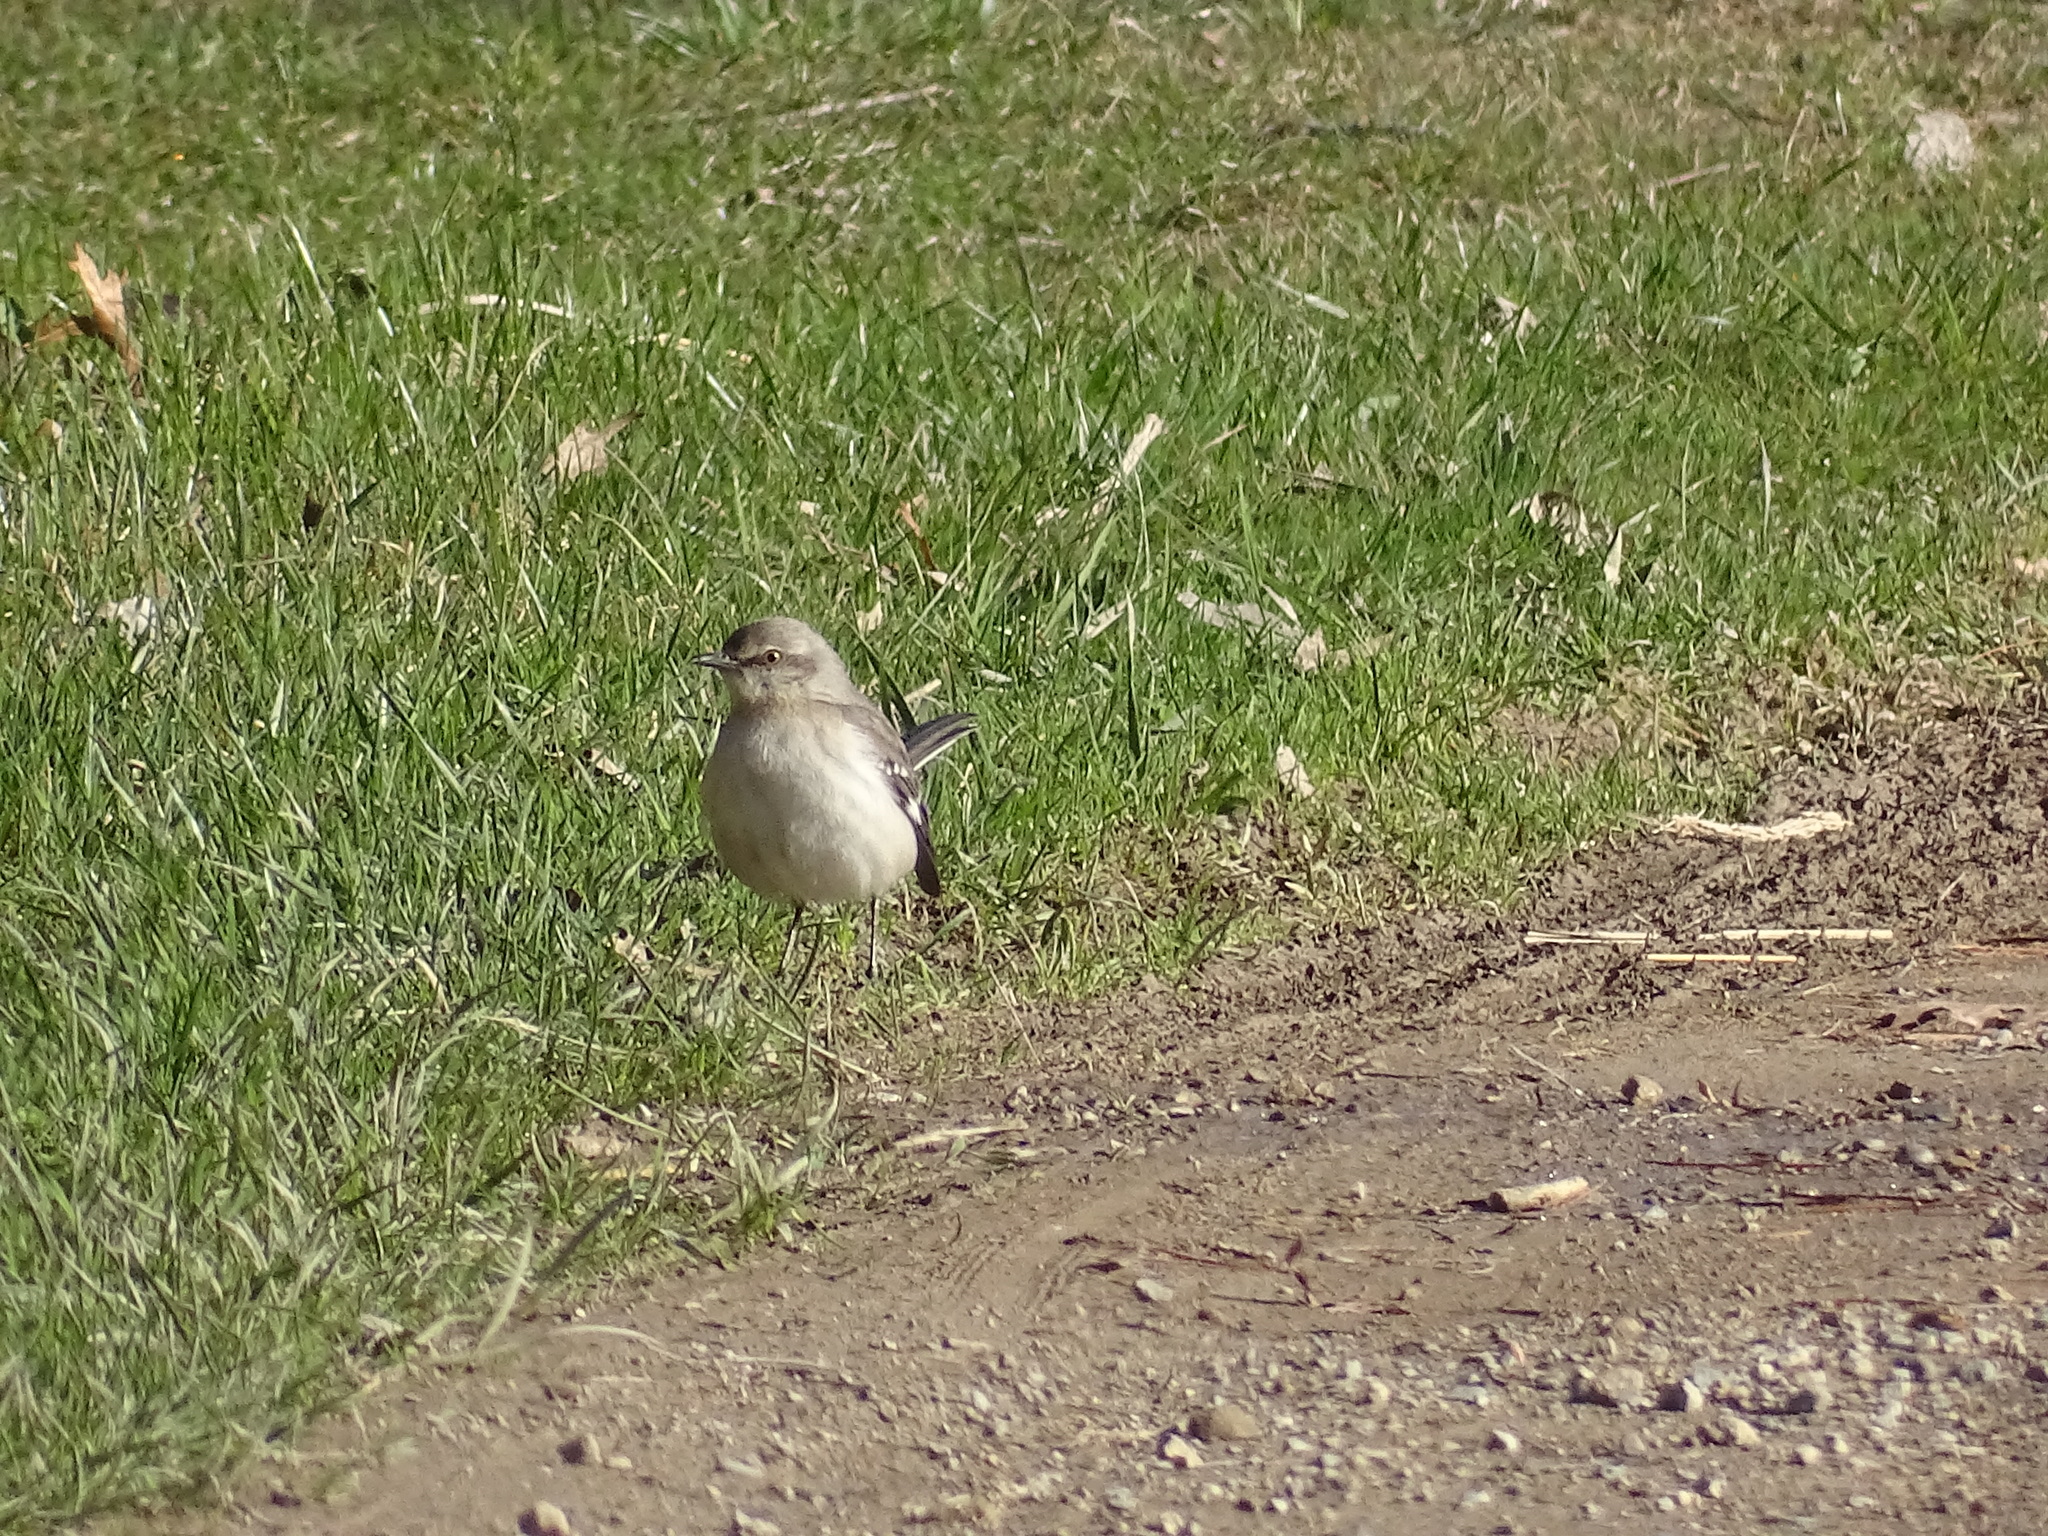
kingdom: Animalia
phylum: Chordata
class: Aves
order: Passeriformes
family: Mimidae
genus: Mimus
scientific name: Mimus polyglottos
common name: Northern mockingbird
